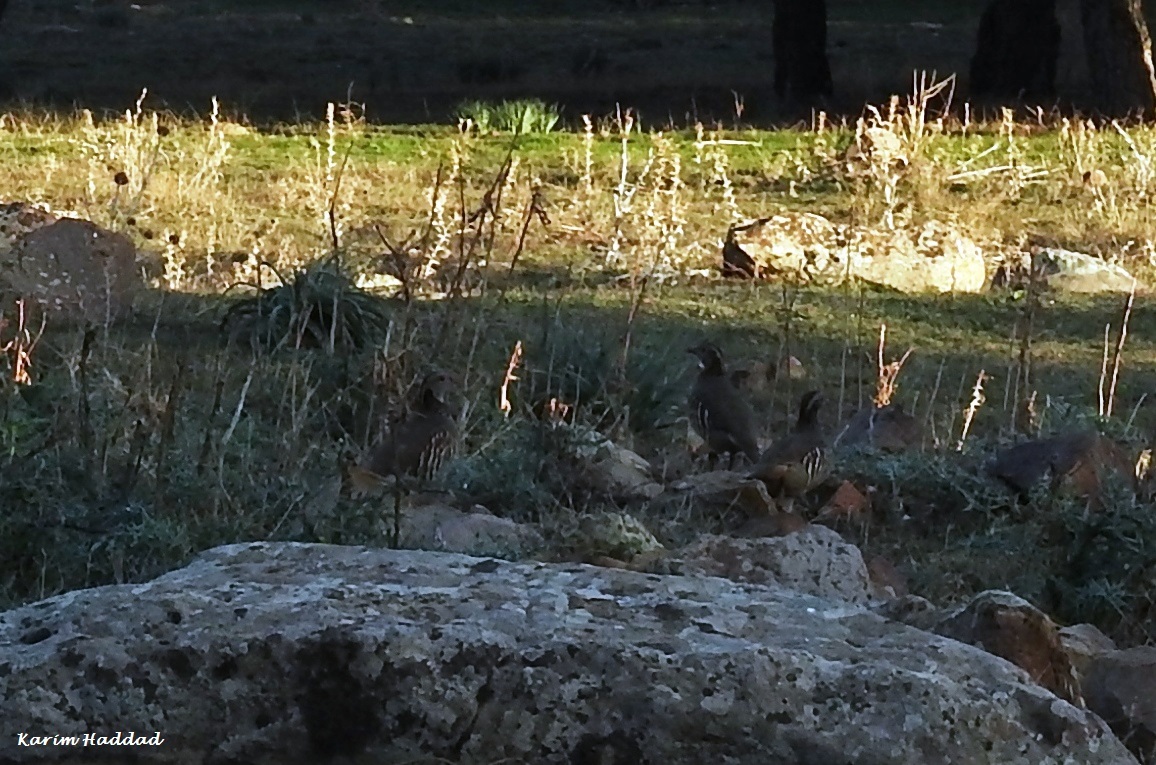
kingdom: Animalia
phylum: Chordata
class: Aves
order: Galliformes
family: Phasianidae
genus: Alectoris
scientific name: Alectoris barbara
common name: Barbary partridge
